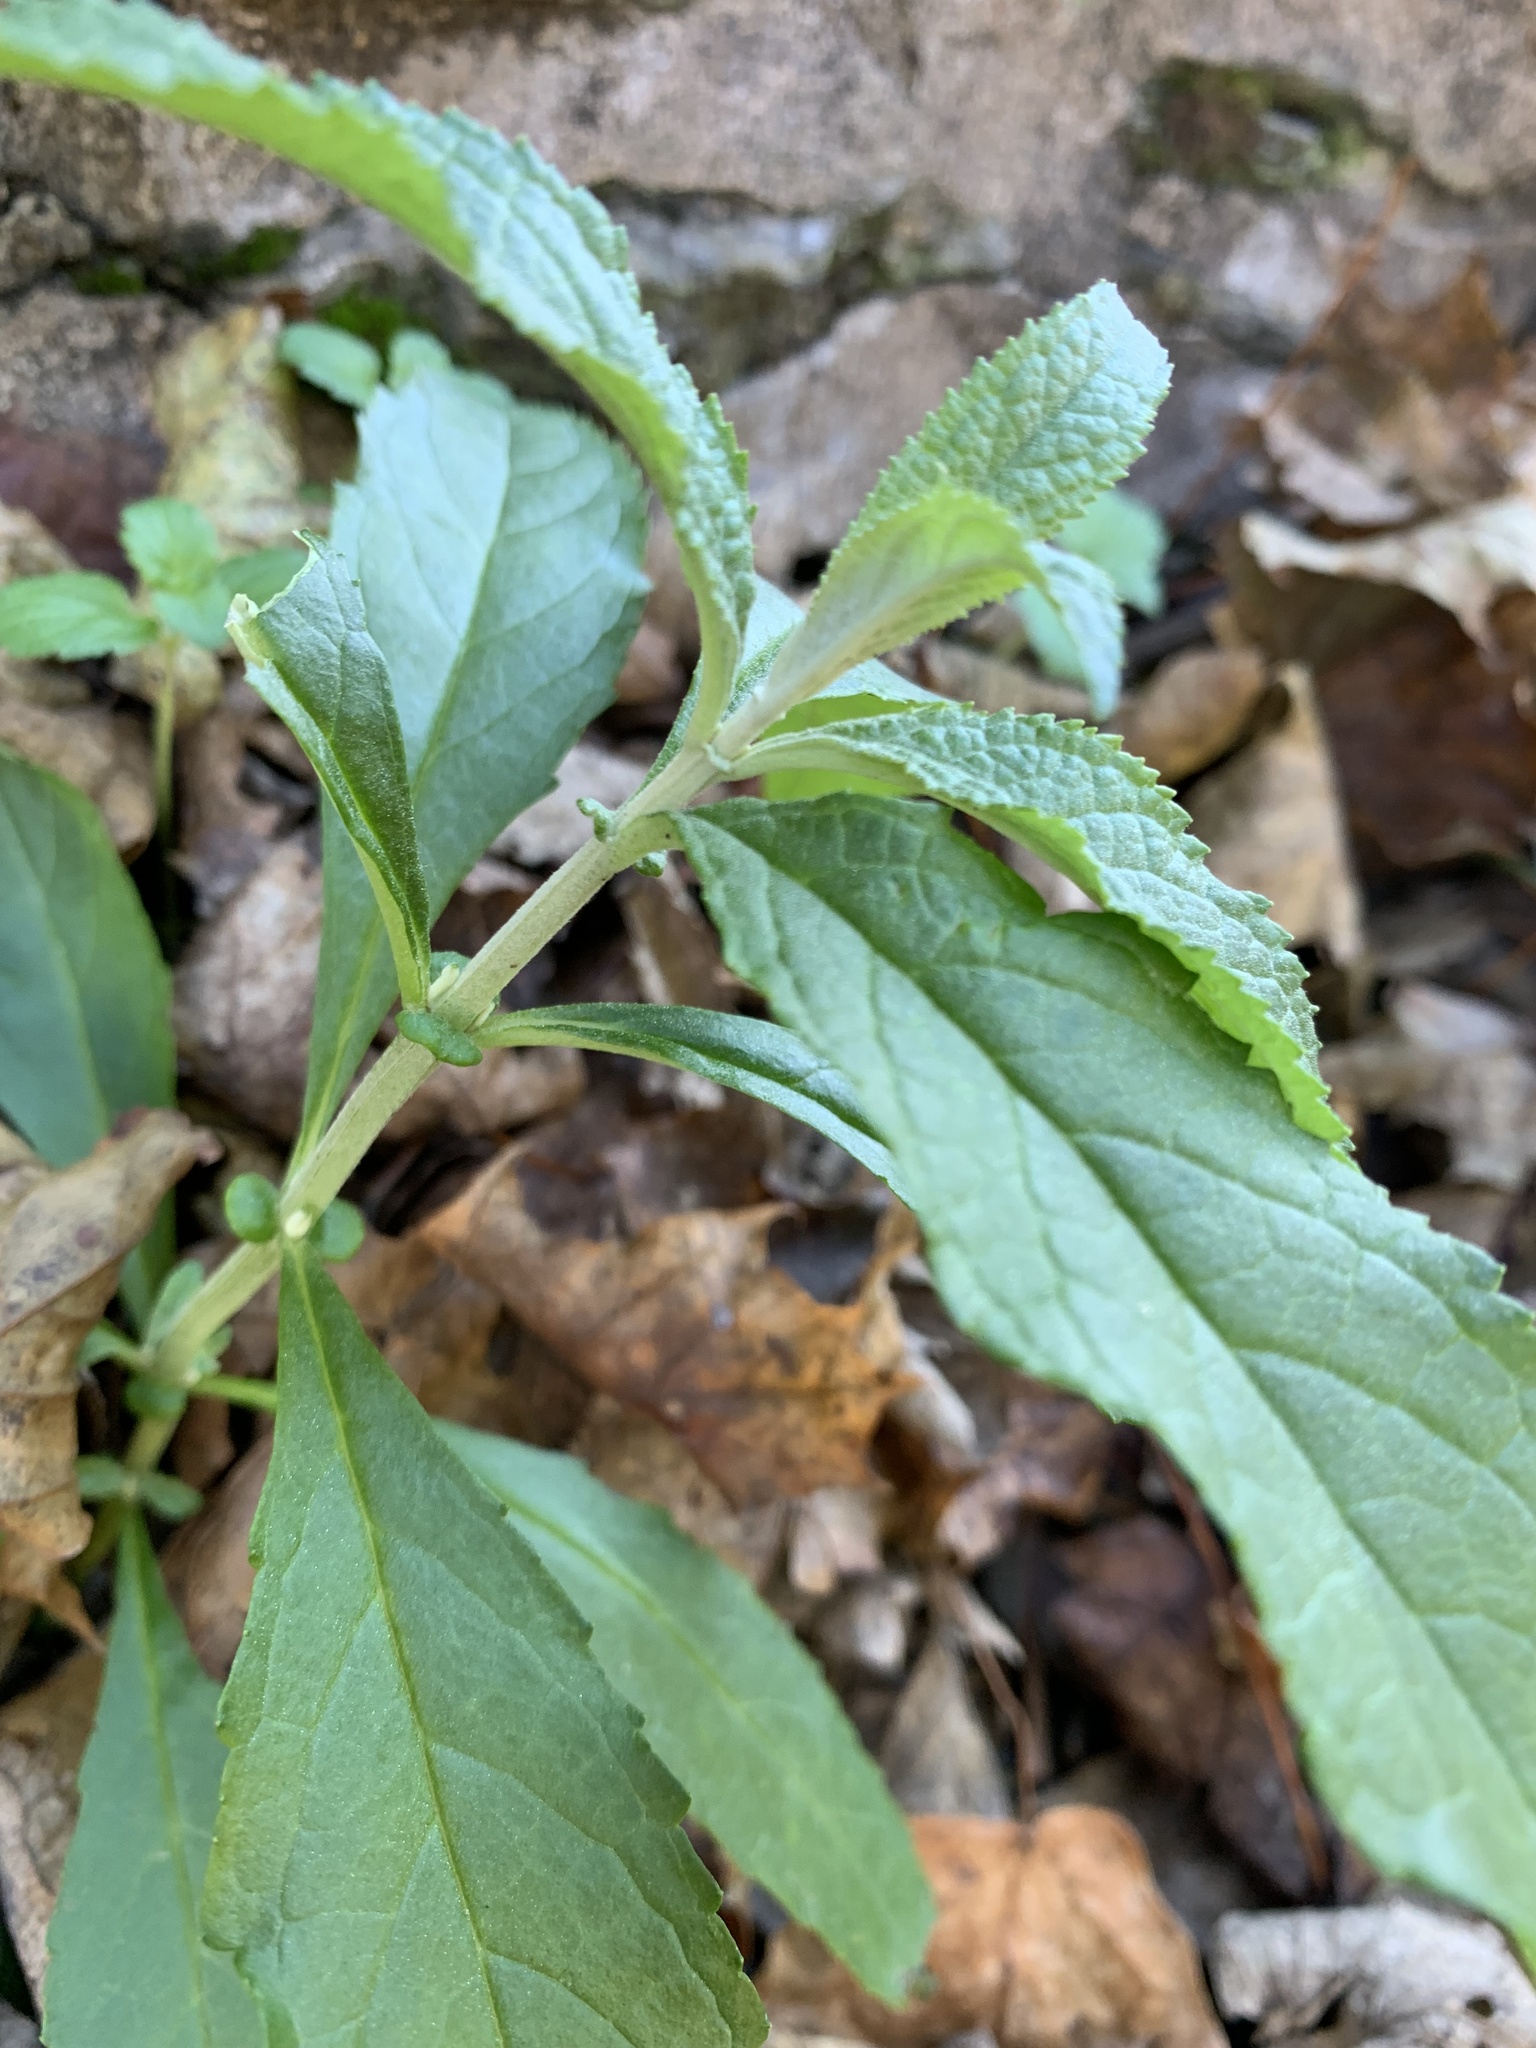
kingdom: Plantae
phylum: Tracheophyta
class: Magnoliopsida
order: Lamiales
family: Scrophulariaceae
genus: Buddleja
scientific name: Buddleja davidii
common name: Butterfly-bush
